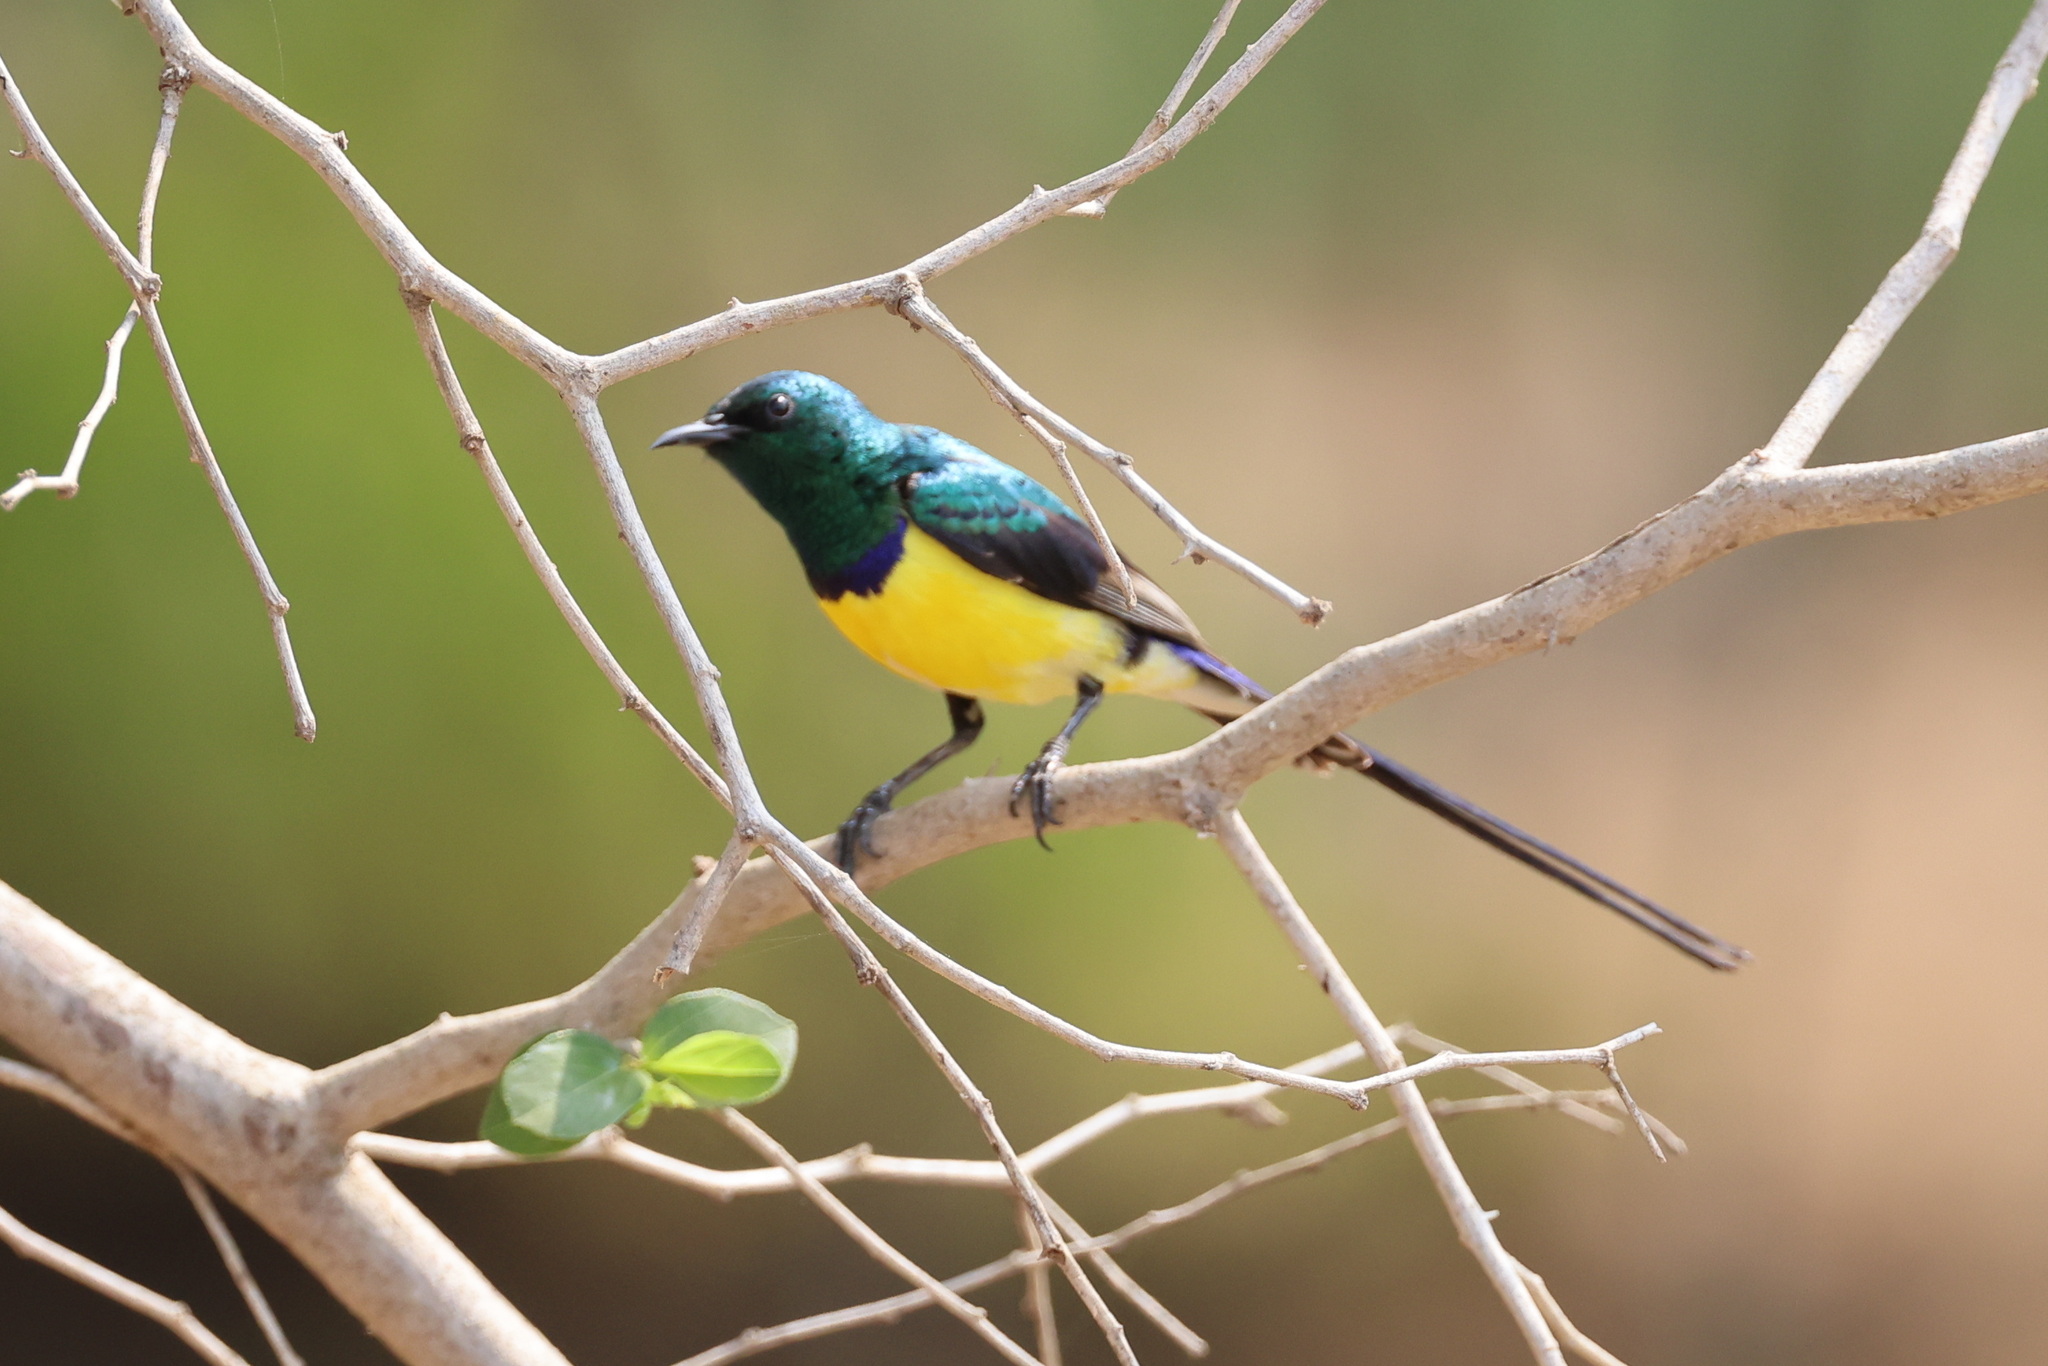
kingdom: Animalia
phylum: Chordata
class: Aves
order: Passeriformes
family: Nectariniidae
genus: Hedydipna
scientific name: Hedydipna metallica
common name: Nile valley sunbird
